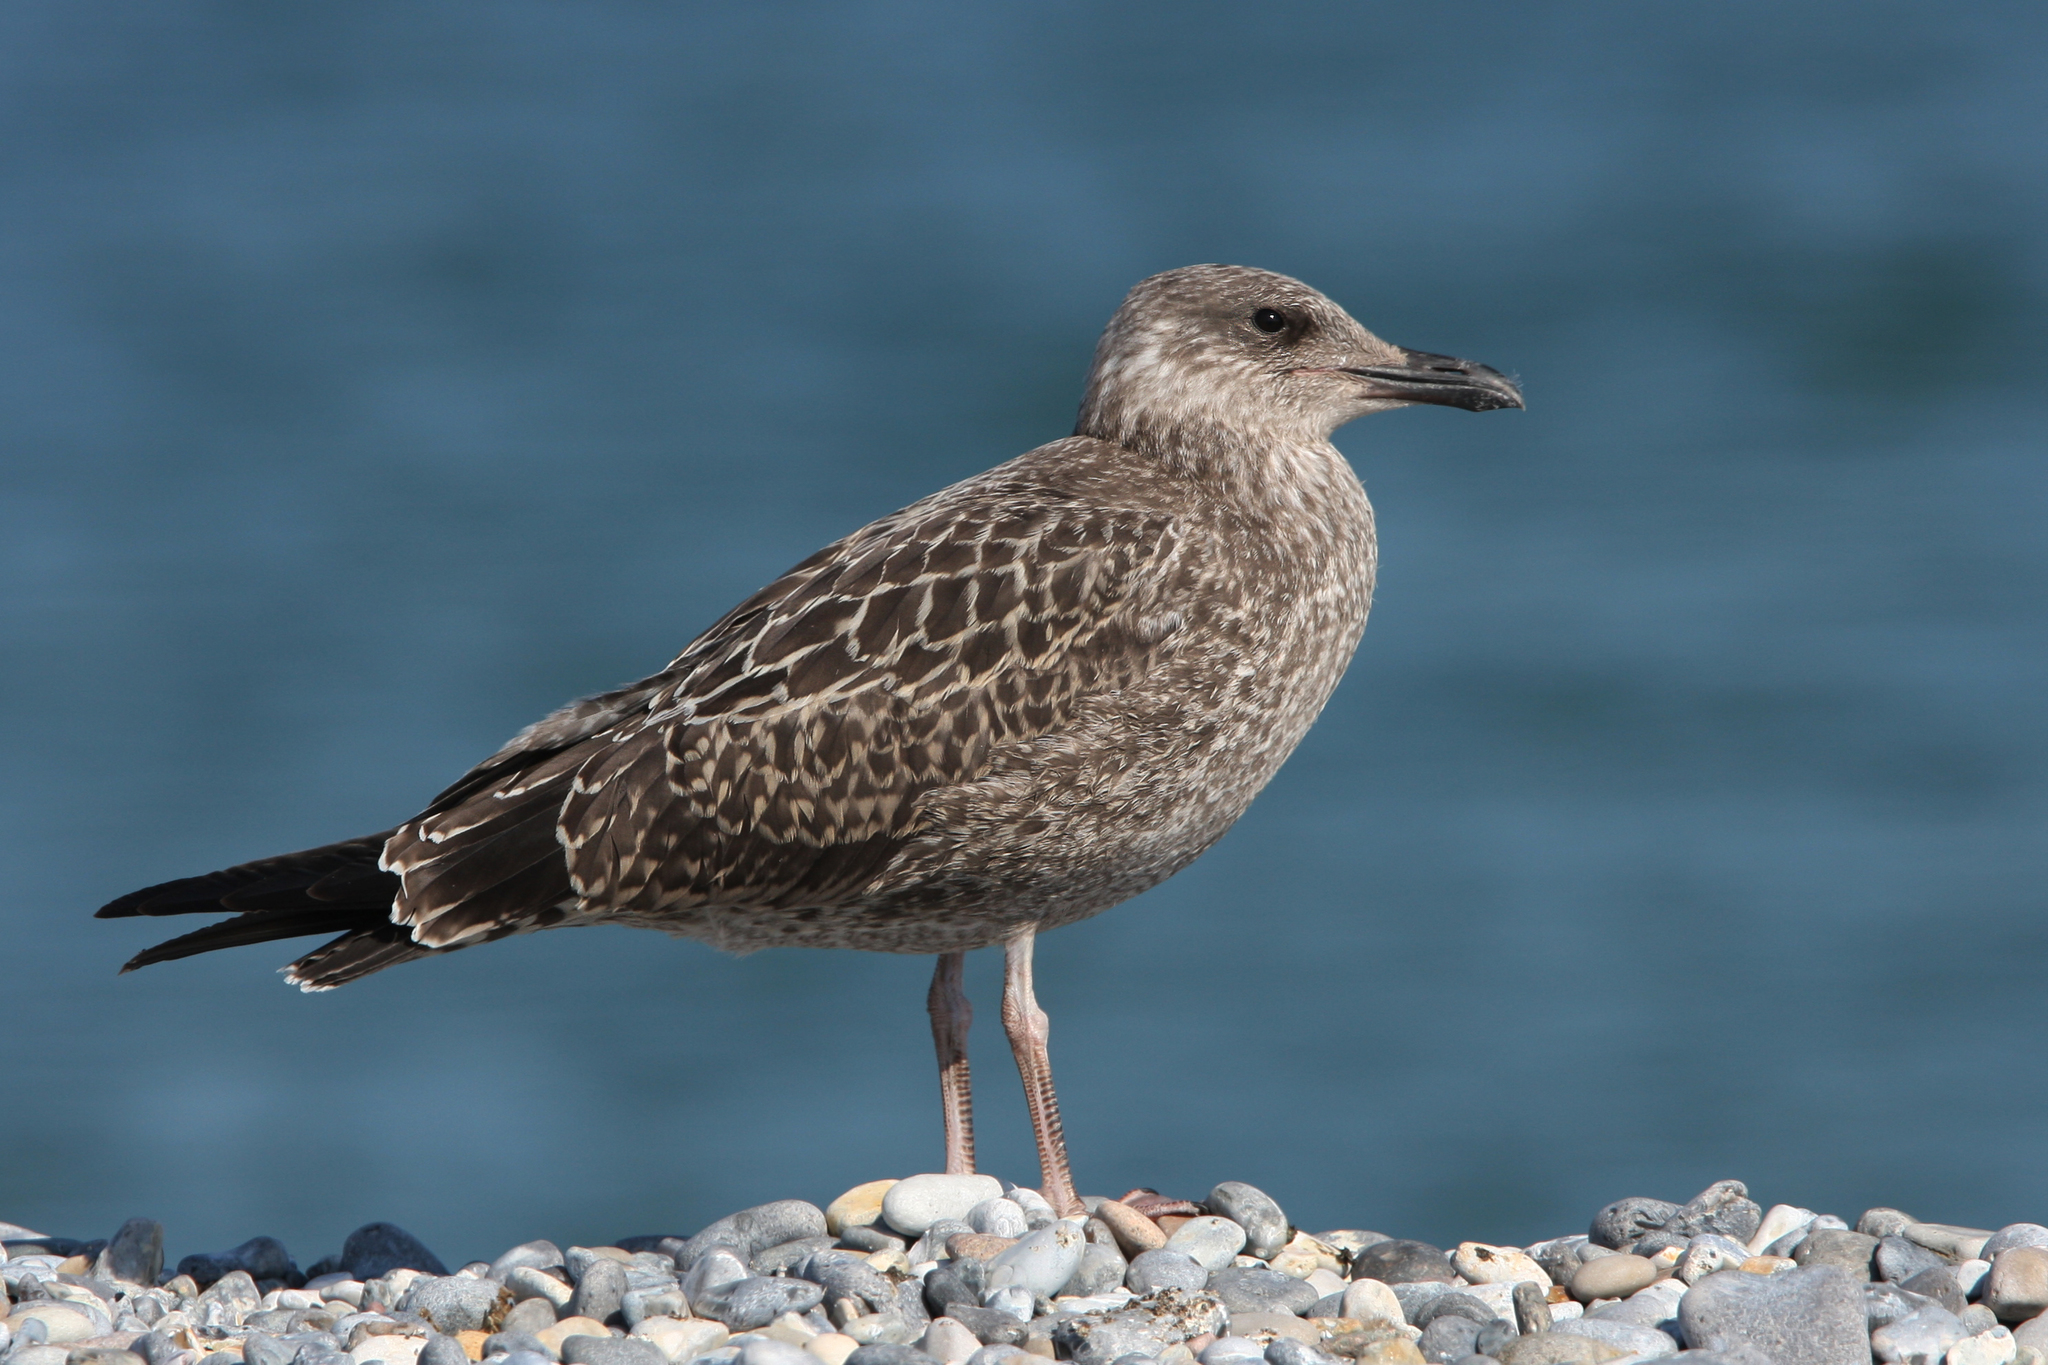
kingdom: Animalia
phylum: Chordata
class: Aves
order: Charadriiformes
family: Laridae
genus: Larus
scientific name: Larus fuscus
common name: Lesser black-backed gull
